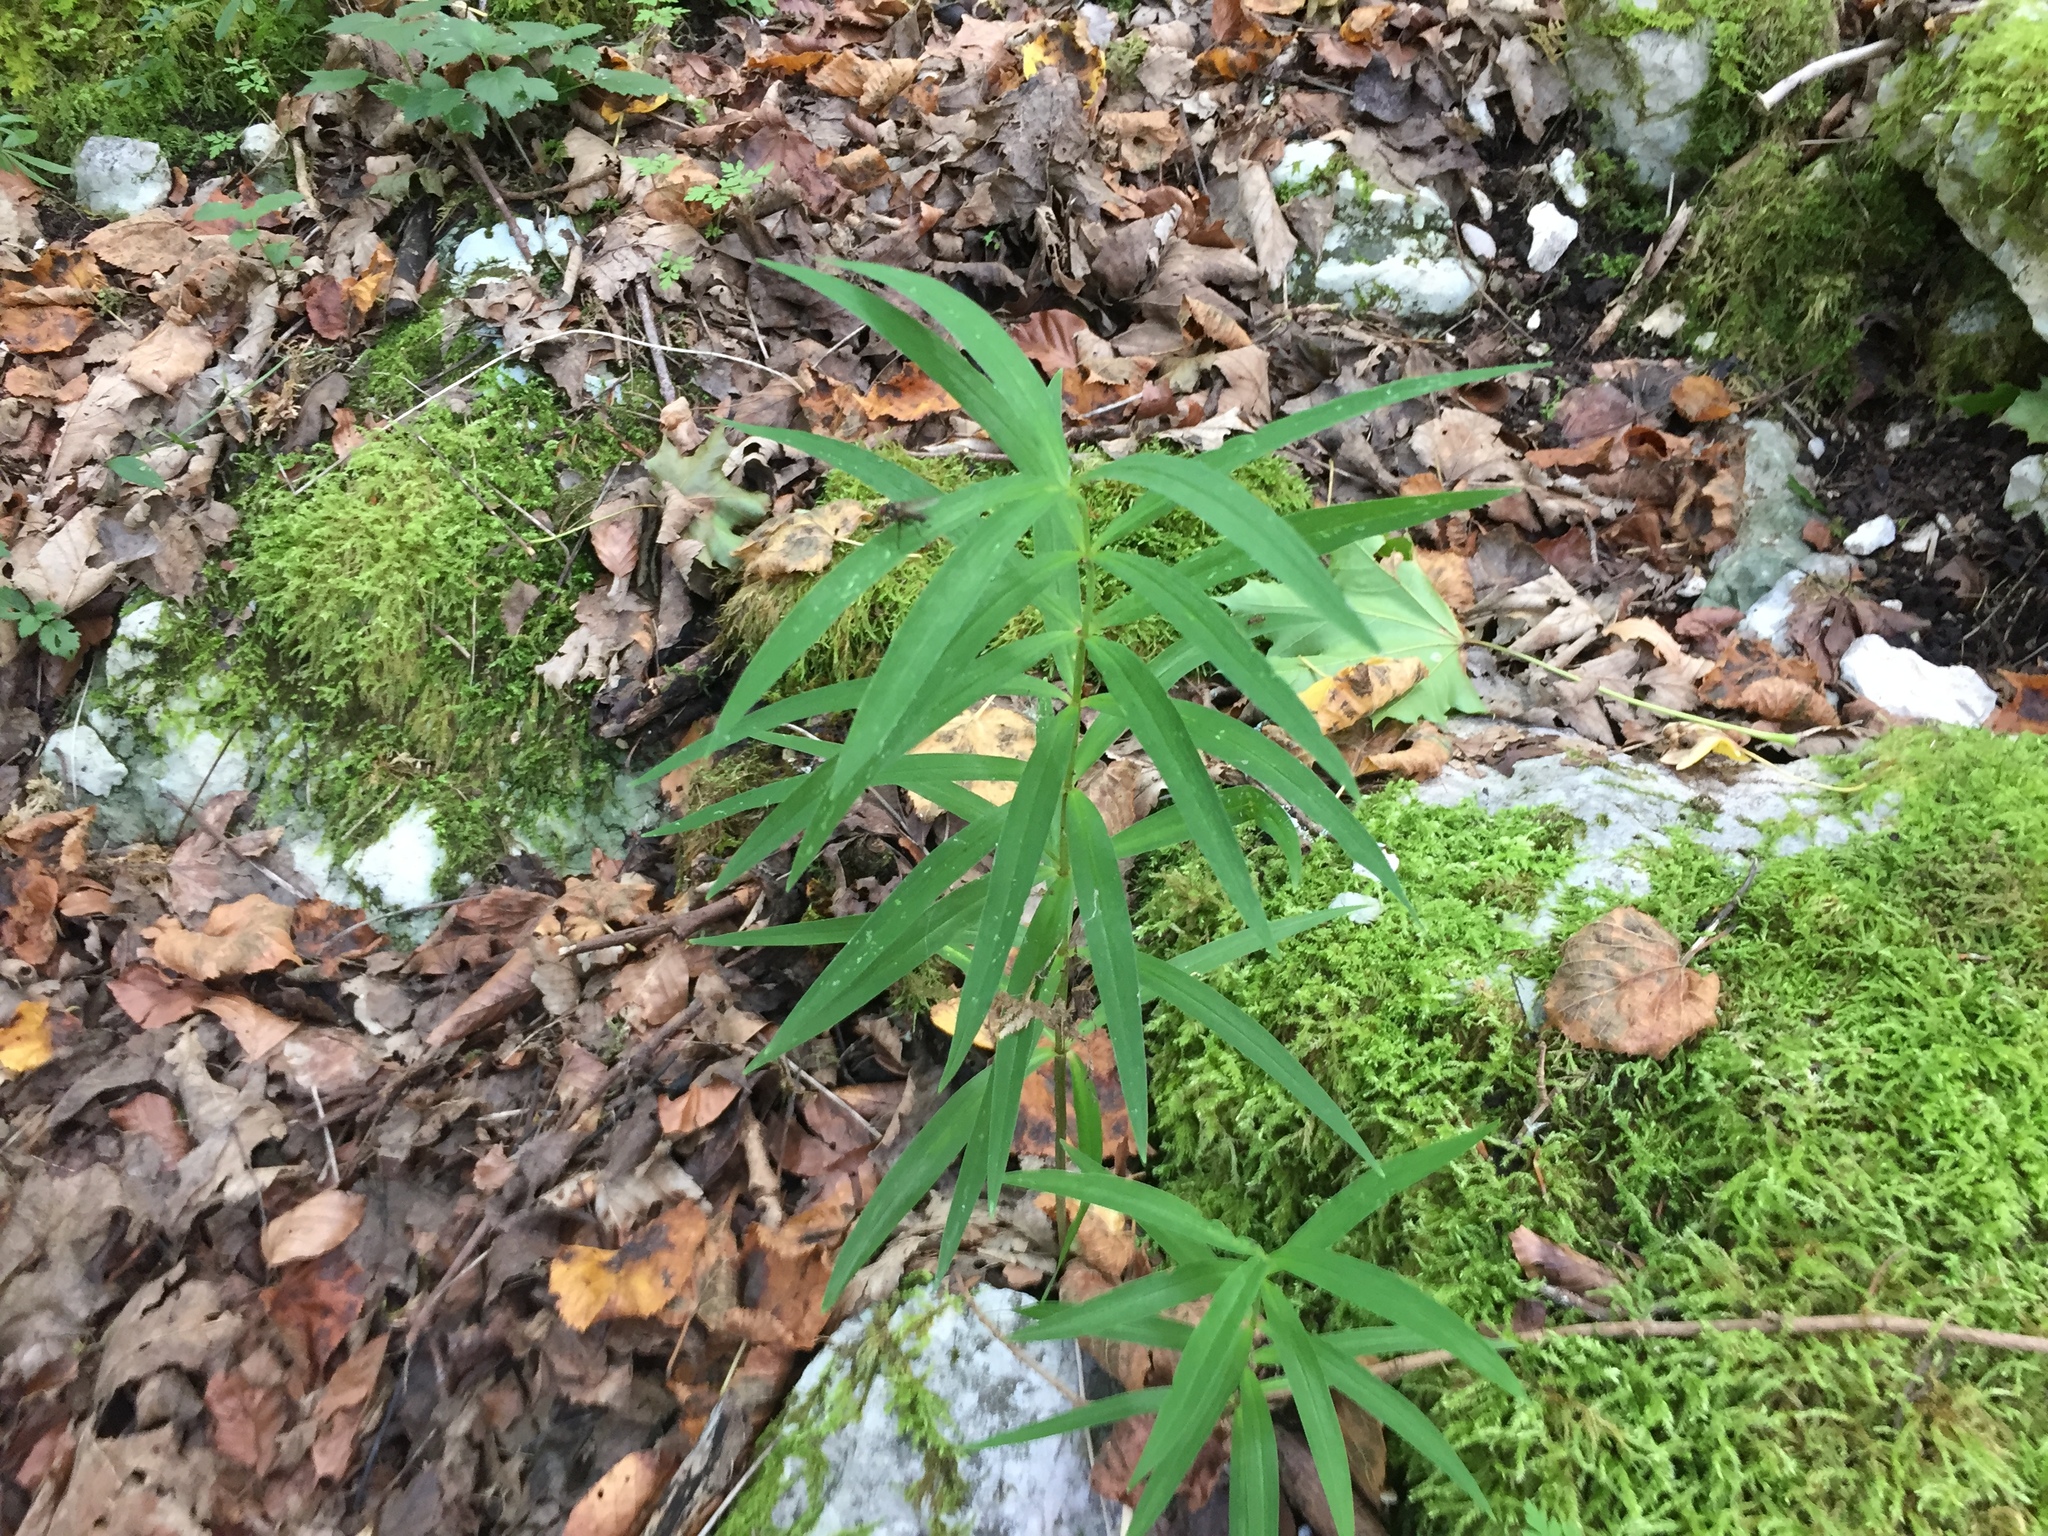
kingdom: Plantae
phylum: Tracheophyta
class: Liliopsida
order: Asparagales
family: Asparagaceae
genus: Polygonatum
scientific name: Polygonatum verticillatum
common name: Whorled solomon's-seal
